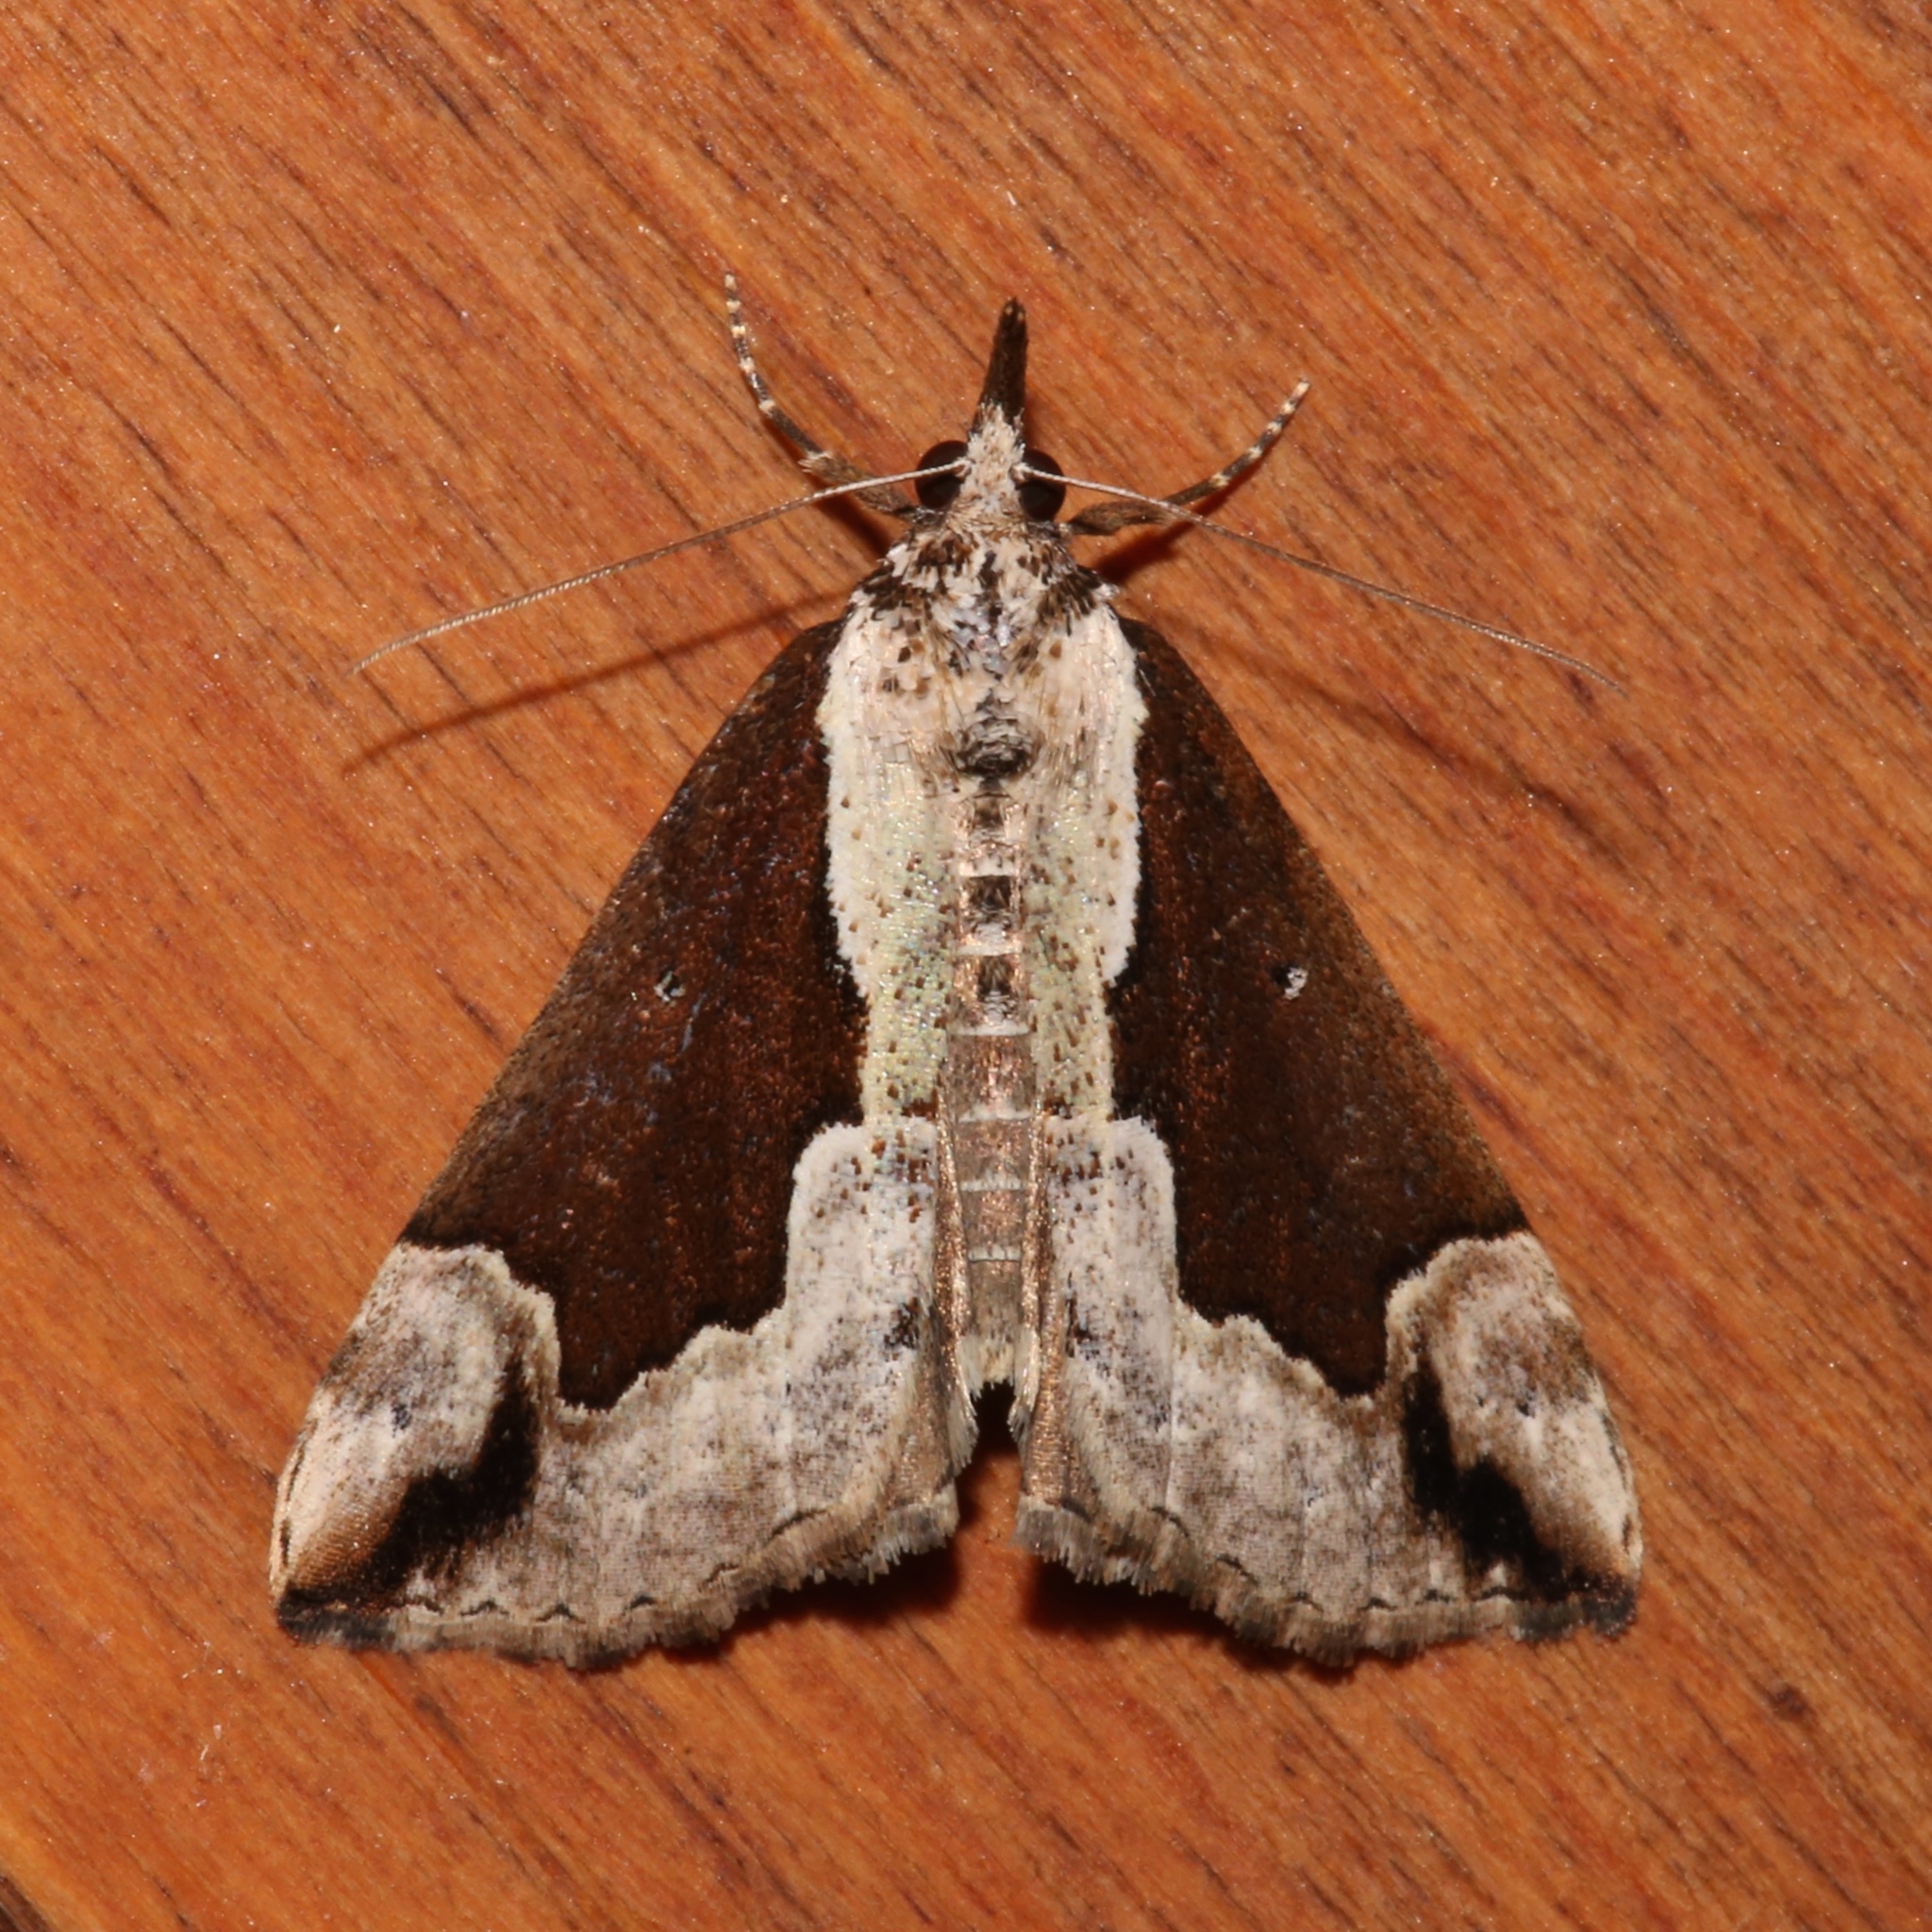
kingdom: Animalia
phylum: Arthropoda
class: Insecta
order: Lepidoptera
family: Erebidae
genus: Hypena
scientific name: Hypena baltimoralis
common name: Baltimore snout
